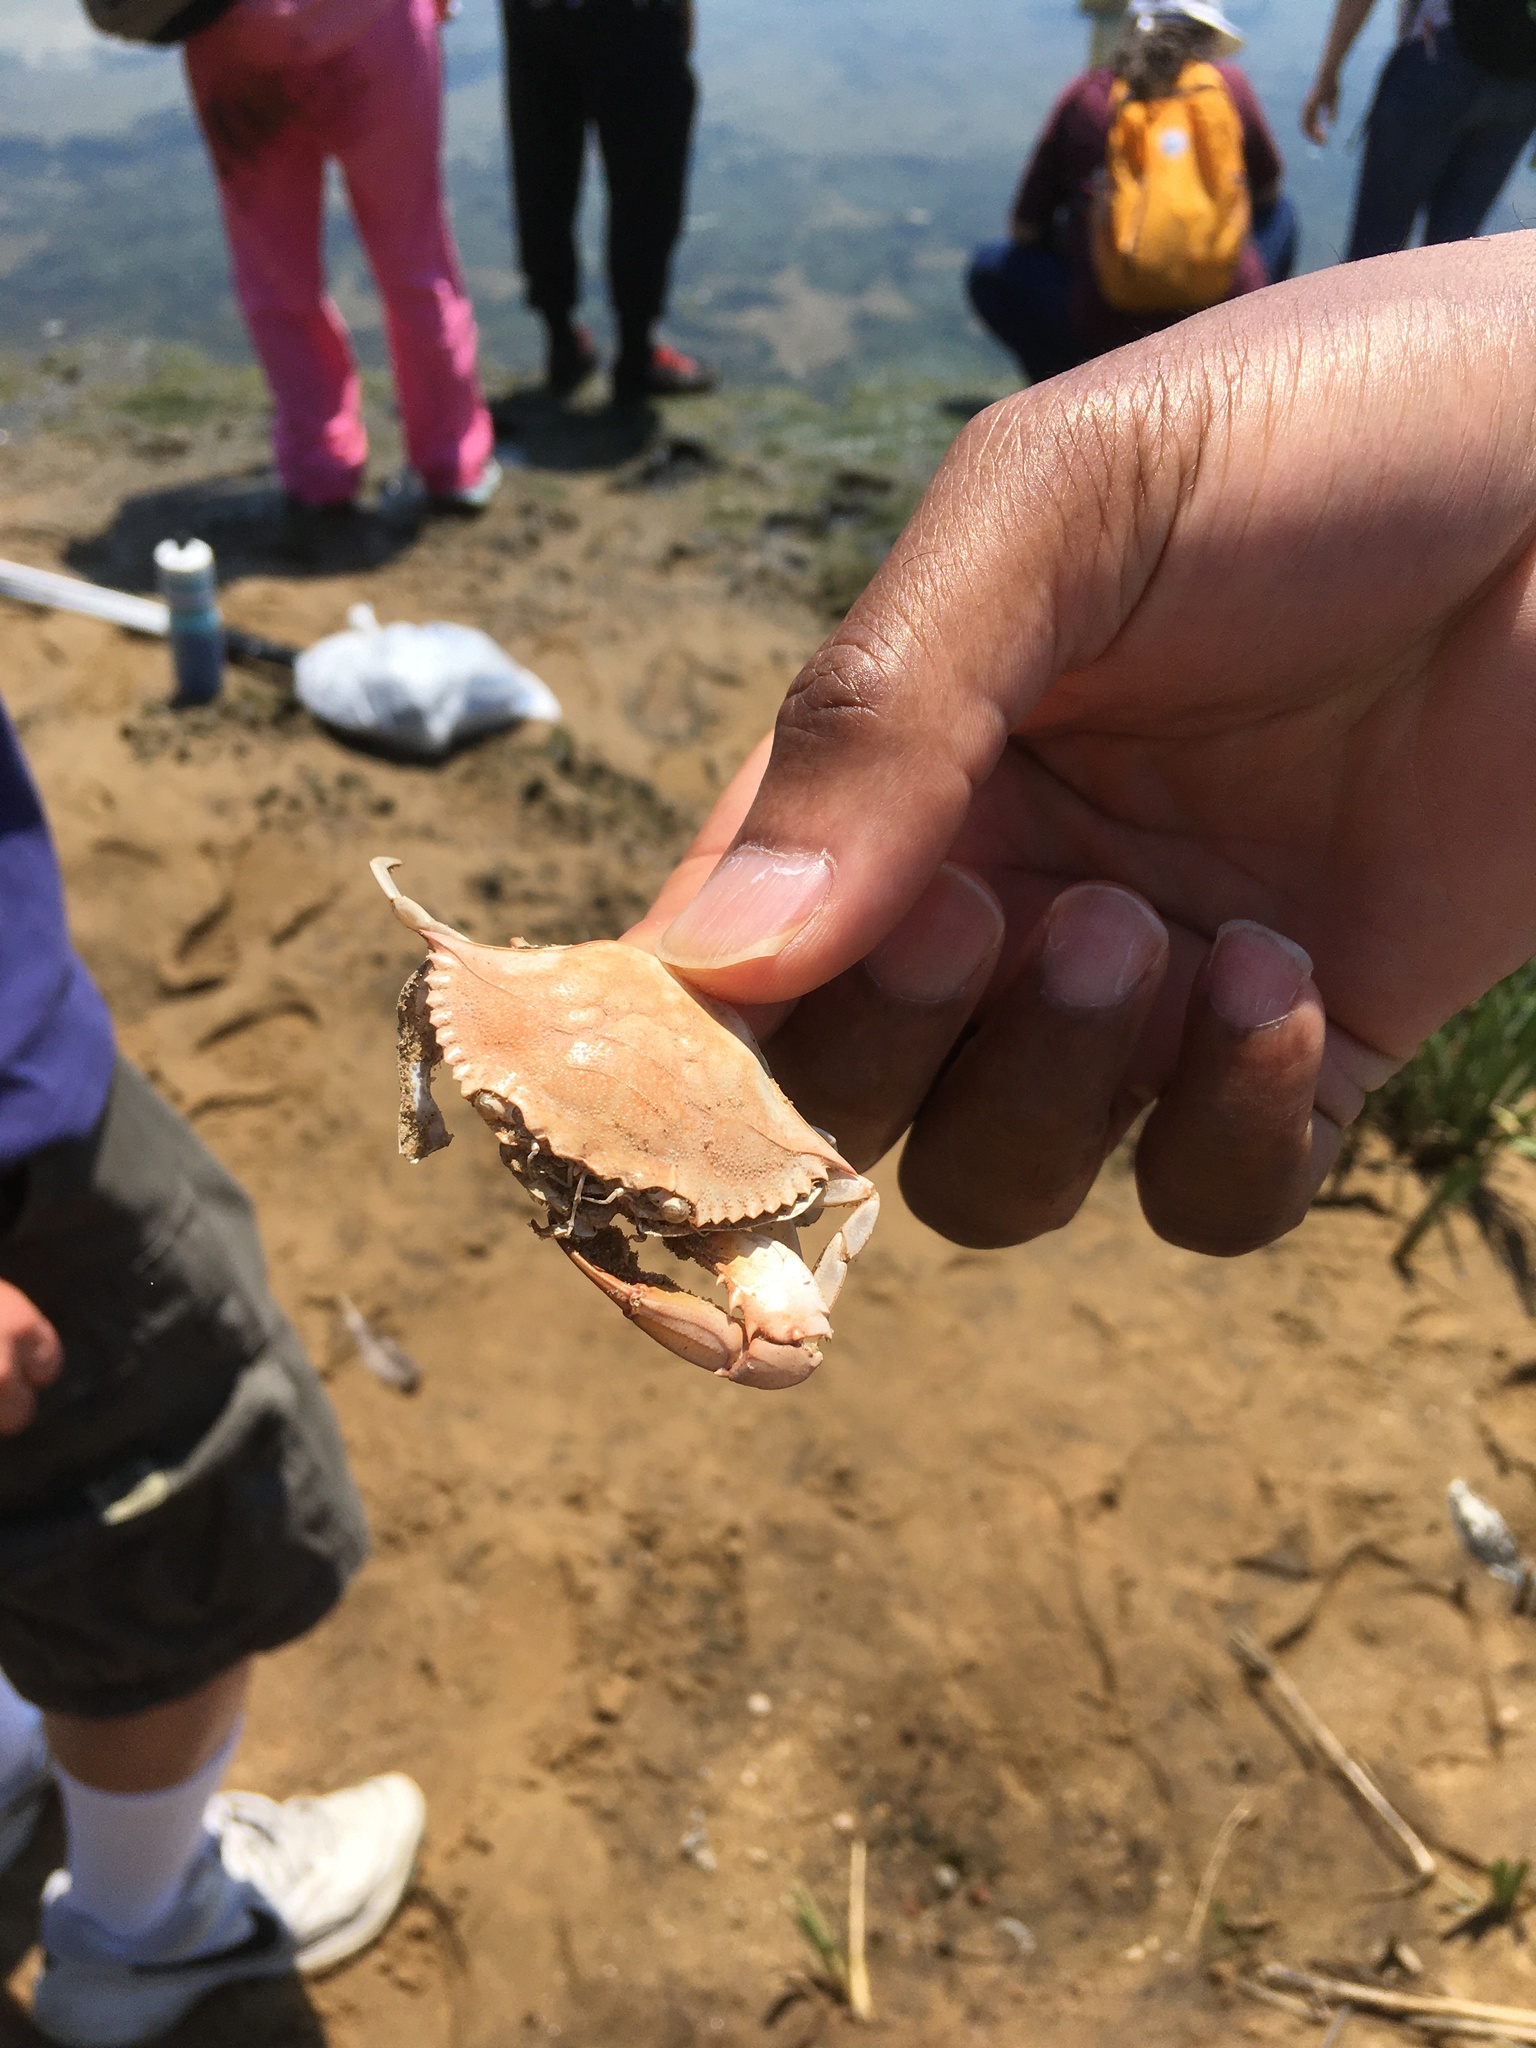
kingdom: Animalia
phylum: Arthropoda
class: Malacostraca
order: Decapoda
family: Portunidae
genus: Callinectes
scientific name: Callinectes sapidus
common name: Blue crab
